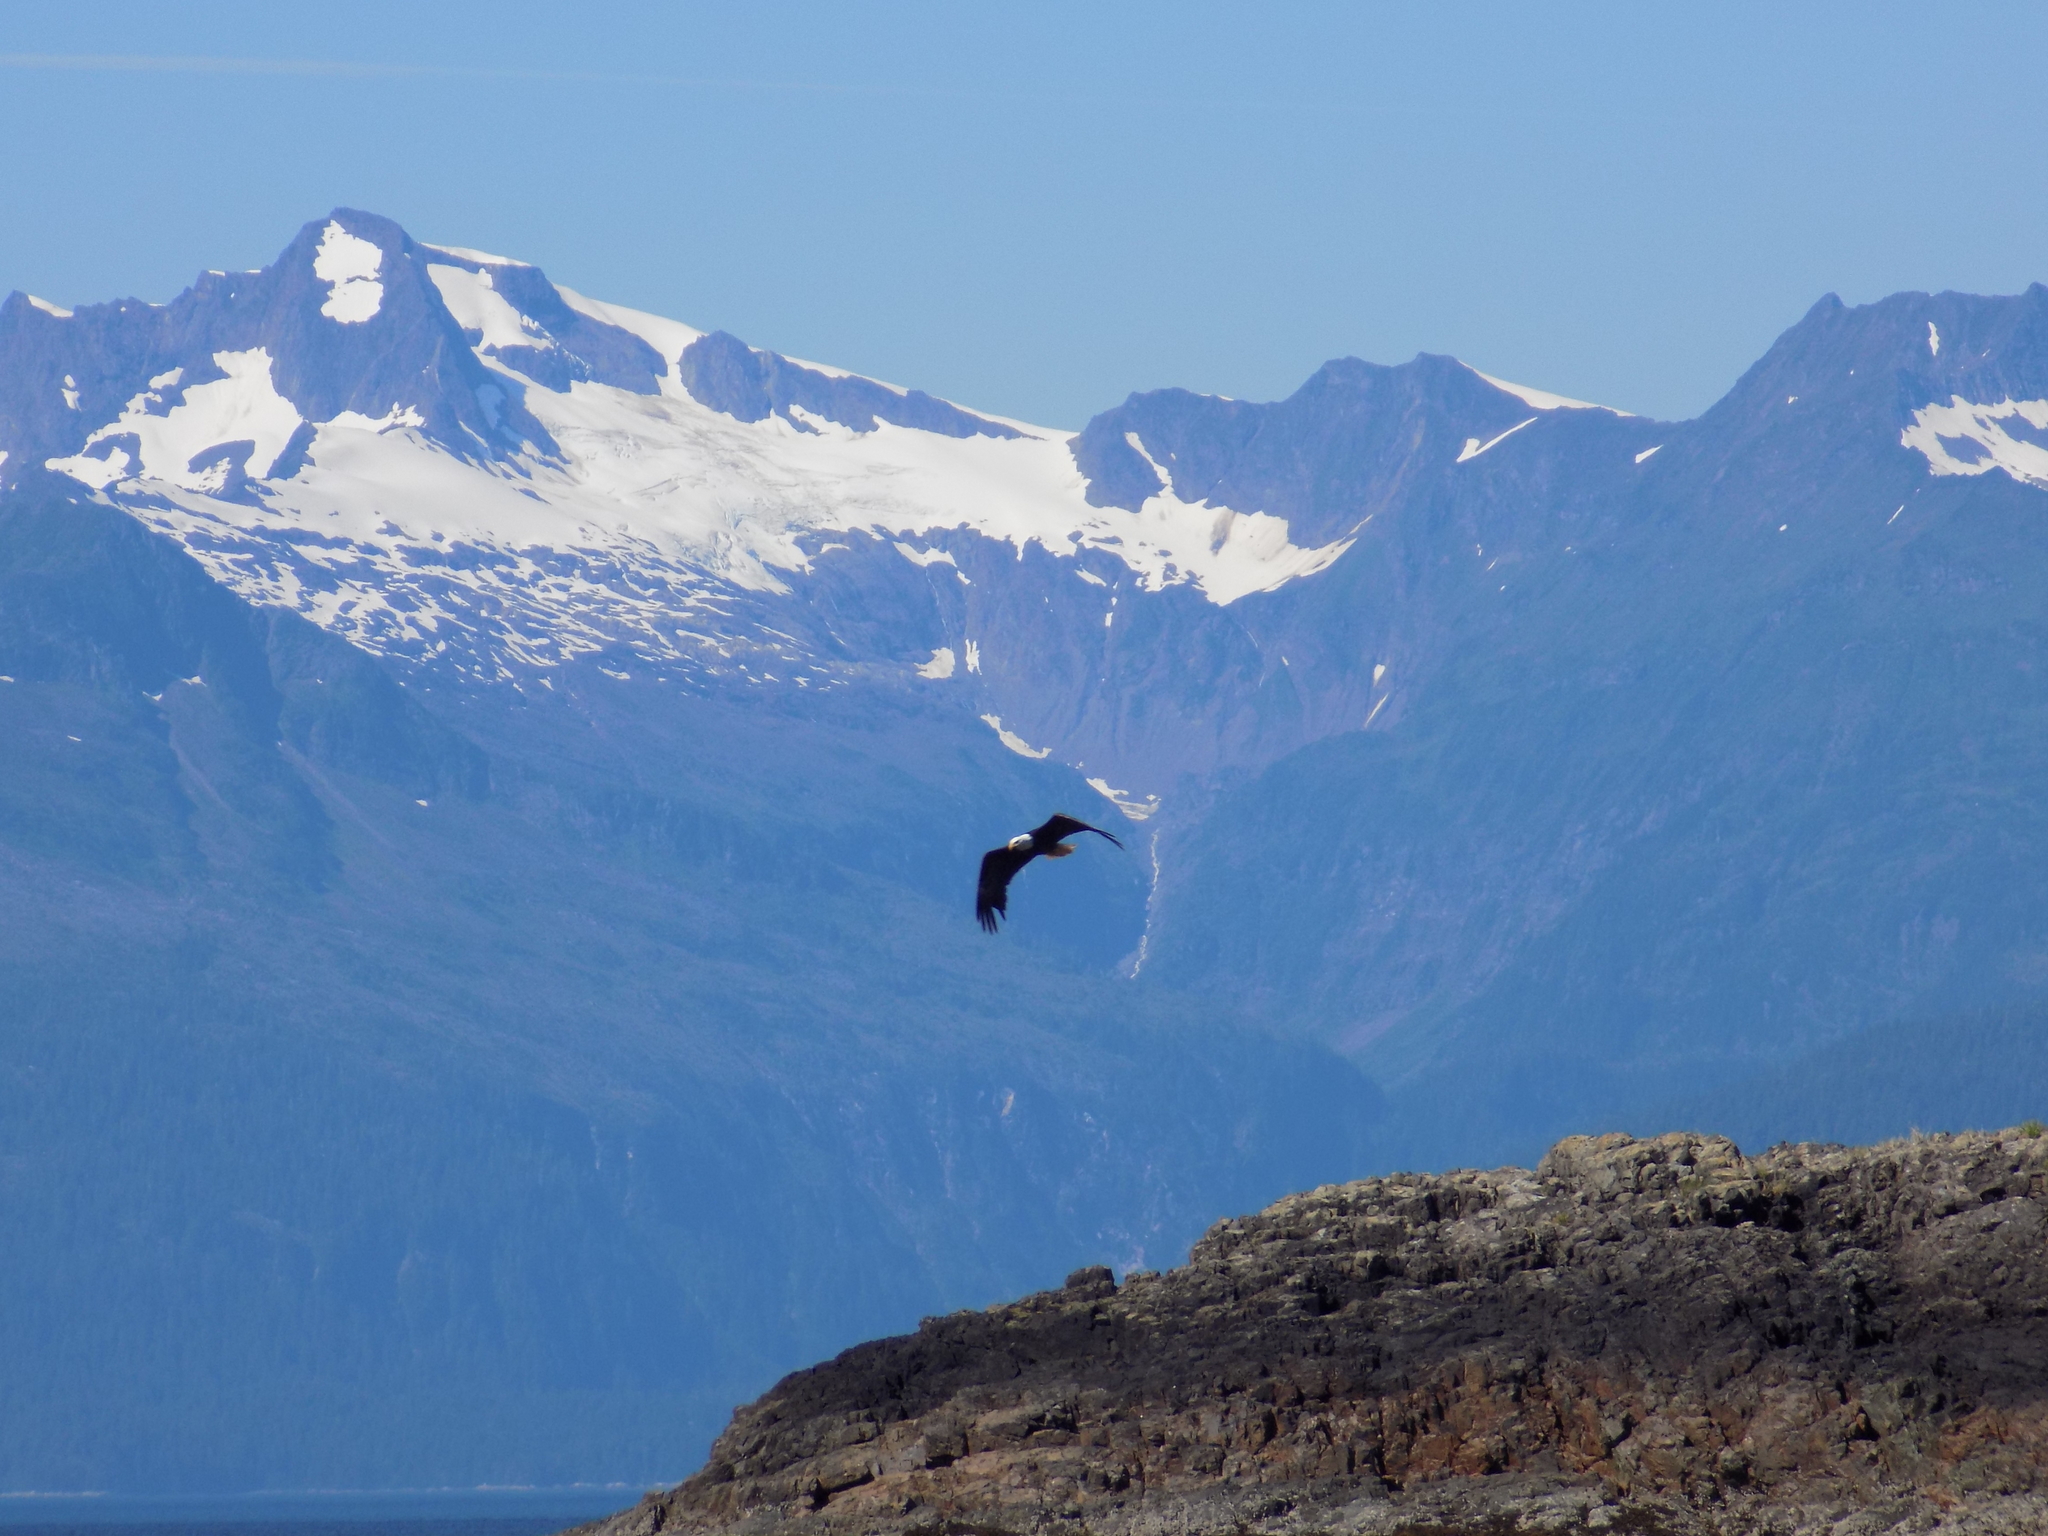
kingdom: Animalia
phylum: Chordata
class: Aves
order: Accipitriformes
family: Accipitridae
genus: Haliaeetus
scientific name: Haliaeetus leucocephalus
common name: Bald eagle
